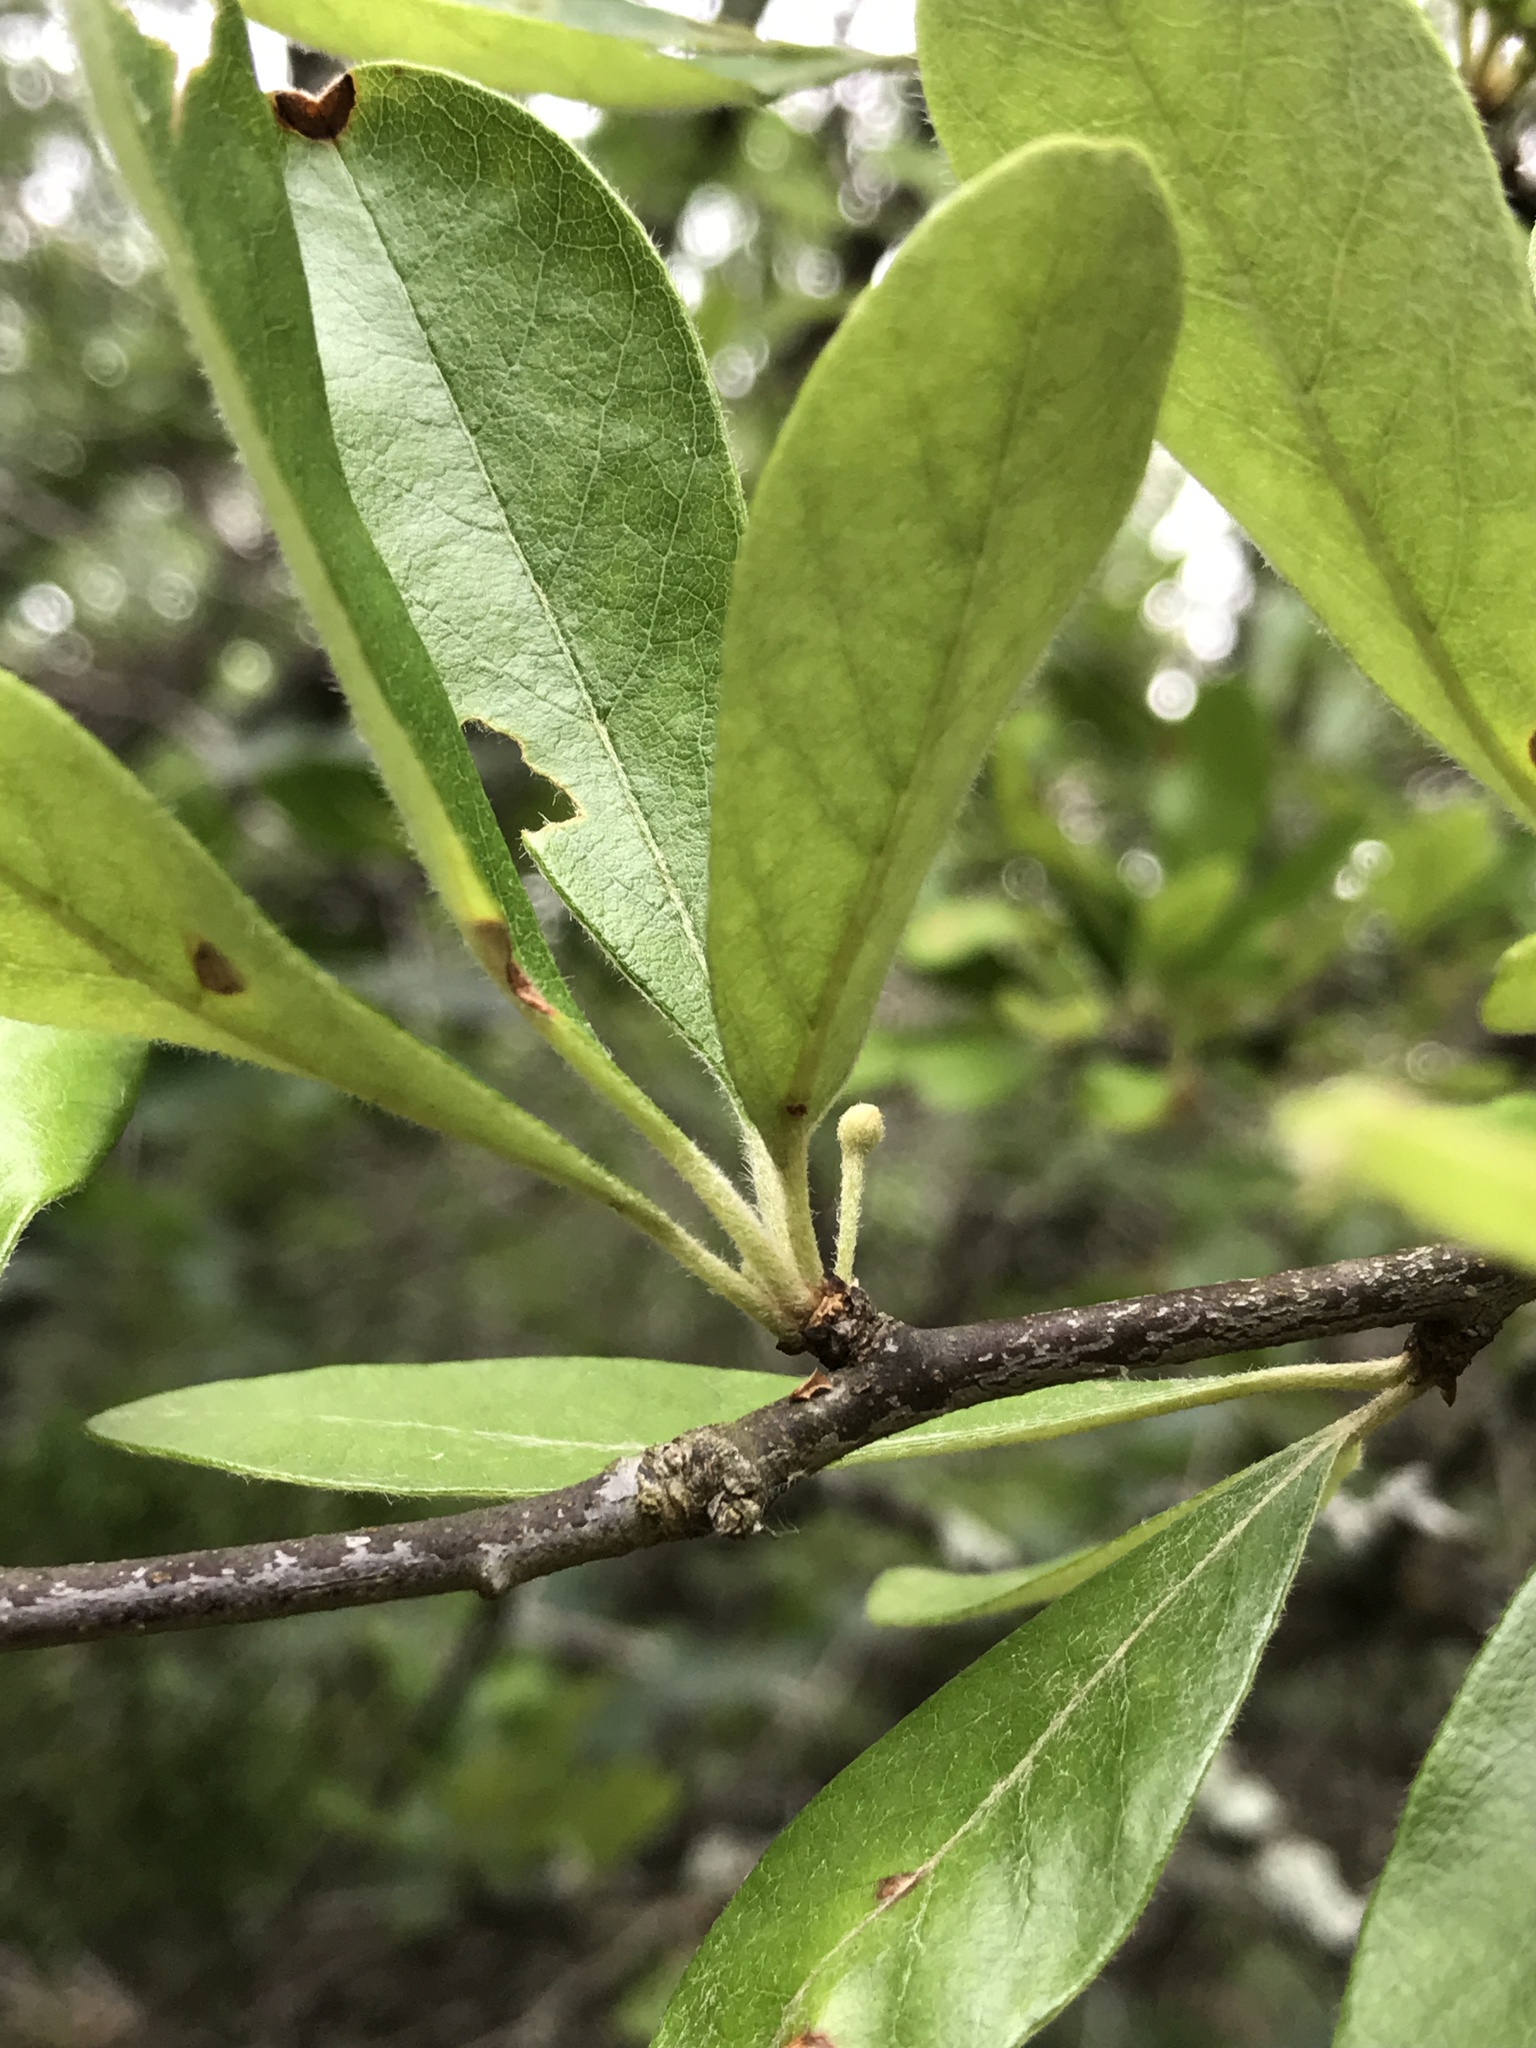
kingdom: Plantae
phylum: Tracheophyta
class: Magnoliopsida
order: Ericales
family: Sapotaceae
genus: Sideroxylon
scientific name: Sideroxylon lanuginosum
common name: Chittamwood
